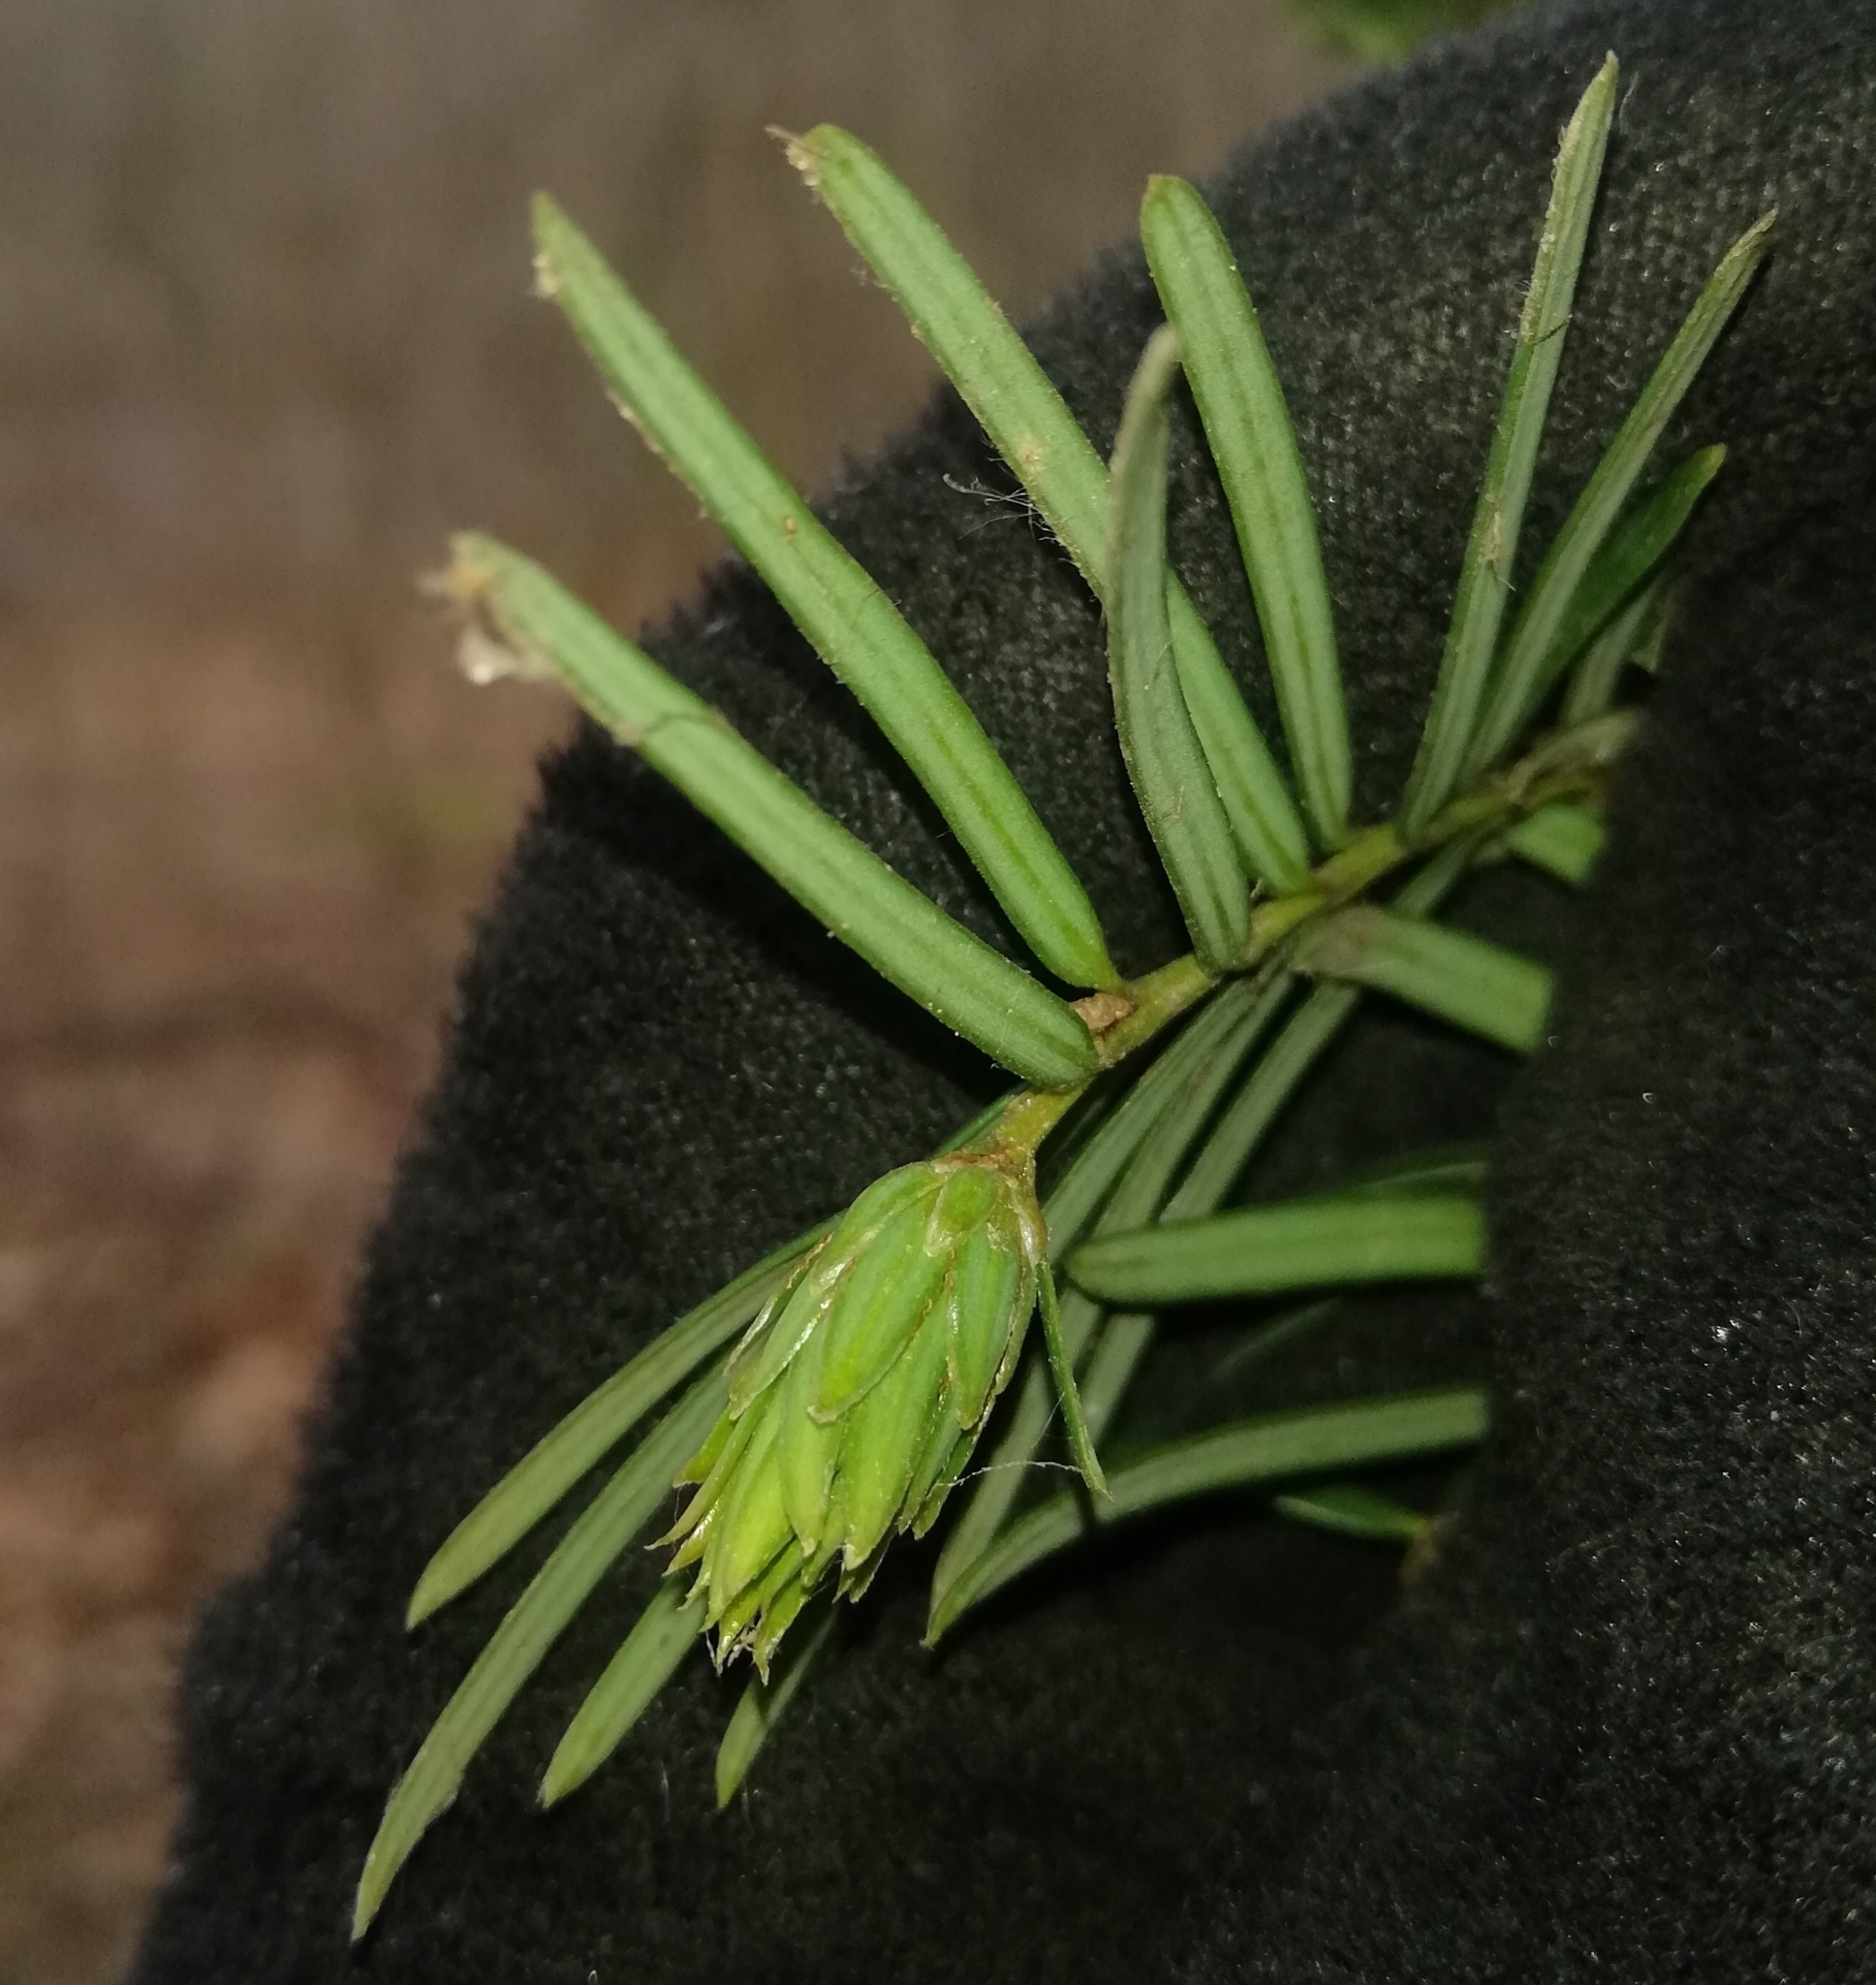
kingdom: Plantae
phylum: Tracheophyta
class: Pinopsida
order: Pinales
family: Taxaceae
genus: Taxus
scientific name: Taxus baccata
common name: Yew
